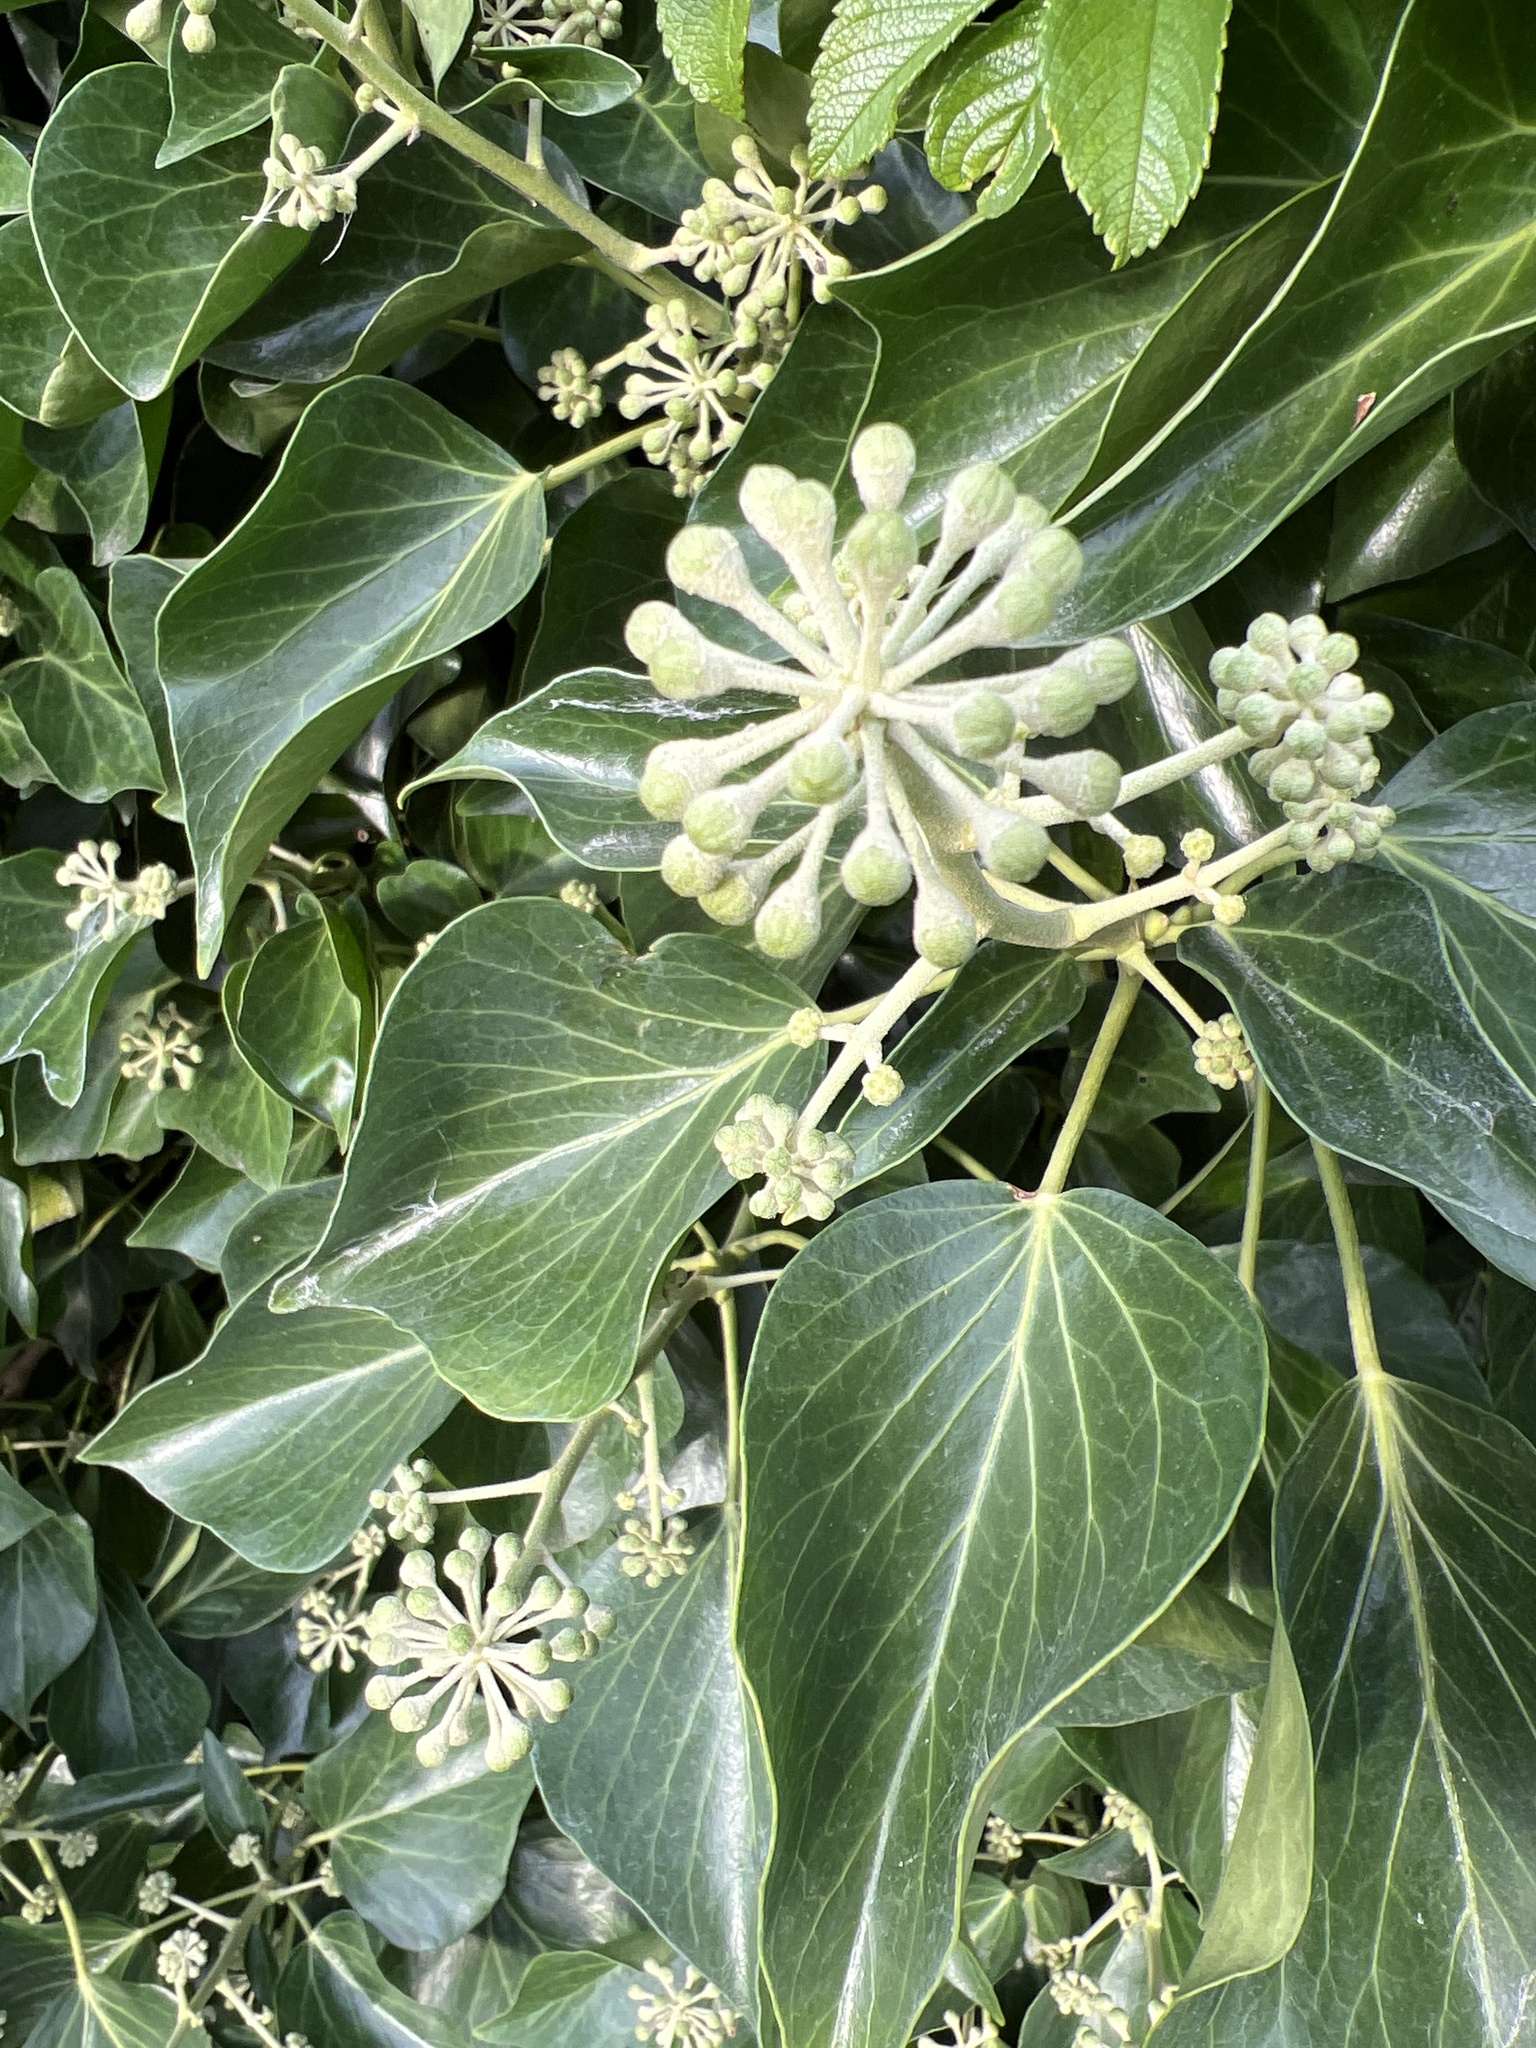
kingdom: Plantae
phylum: Tracheophyta
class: Magnoliopsida
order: Apiales
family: Araliaceae
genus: Hedera
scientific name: Hedera helix
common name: Ivy
